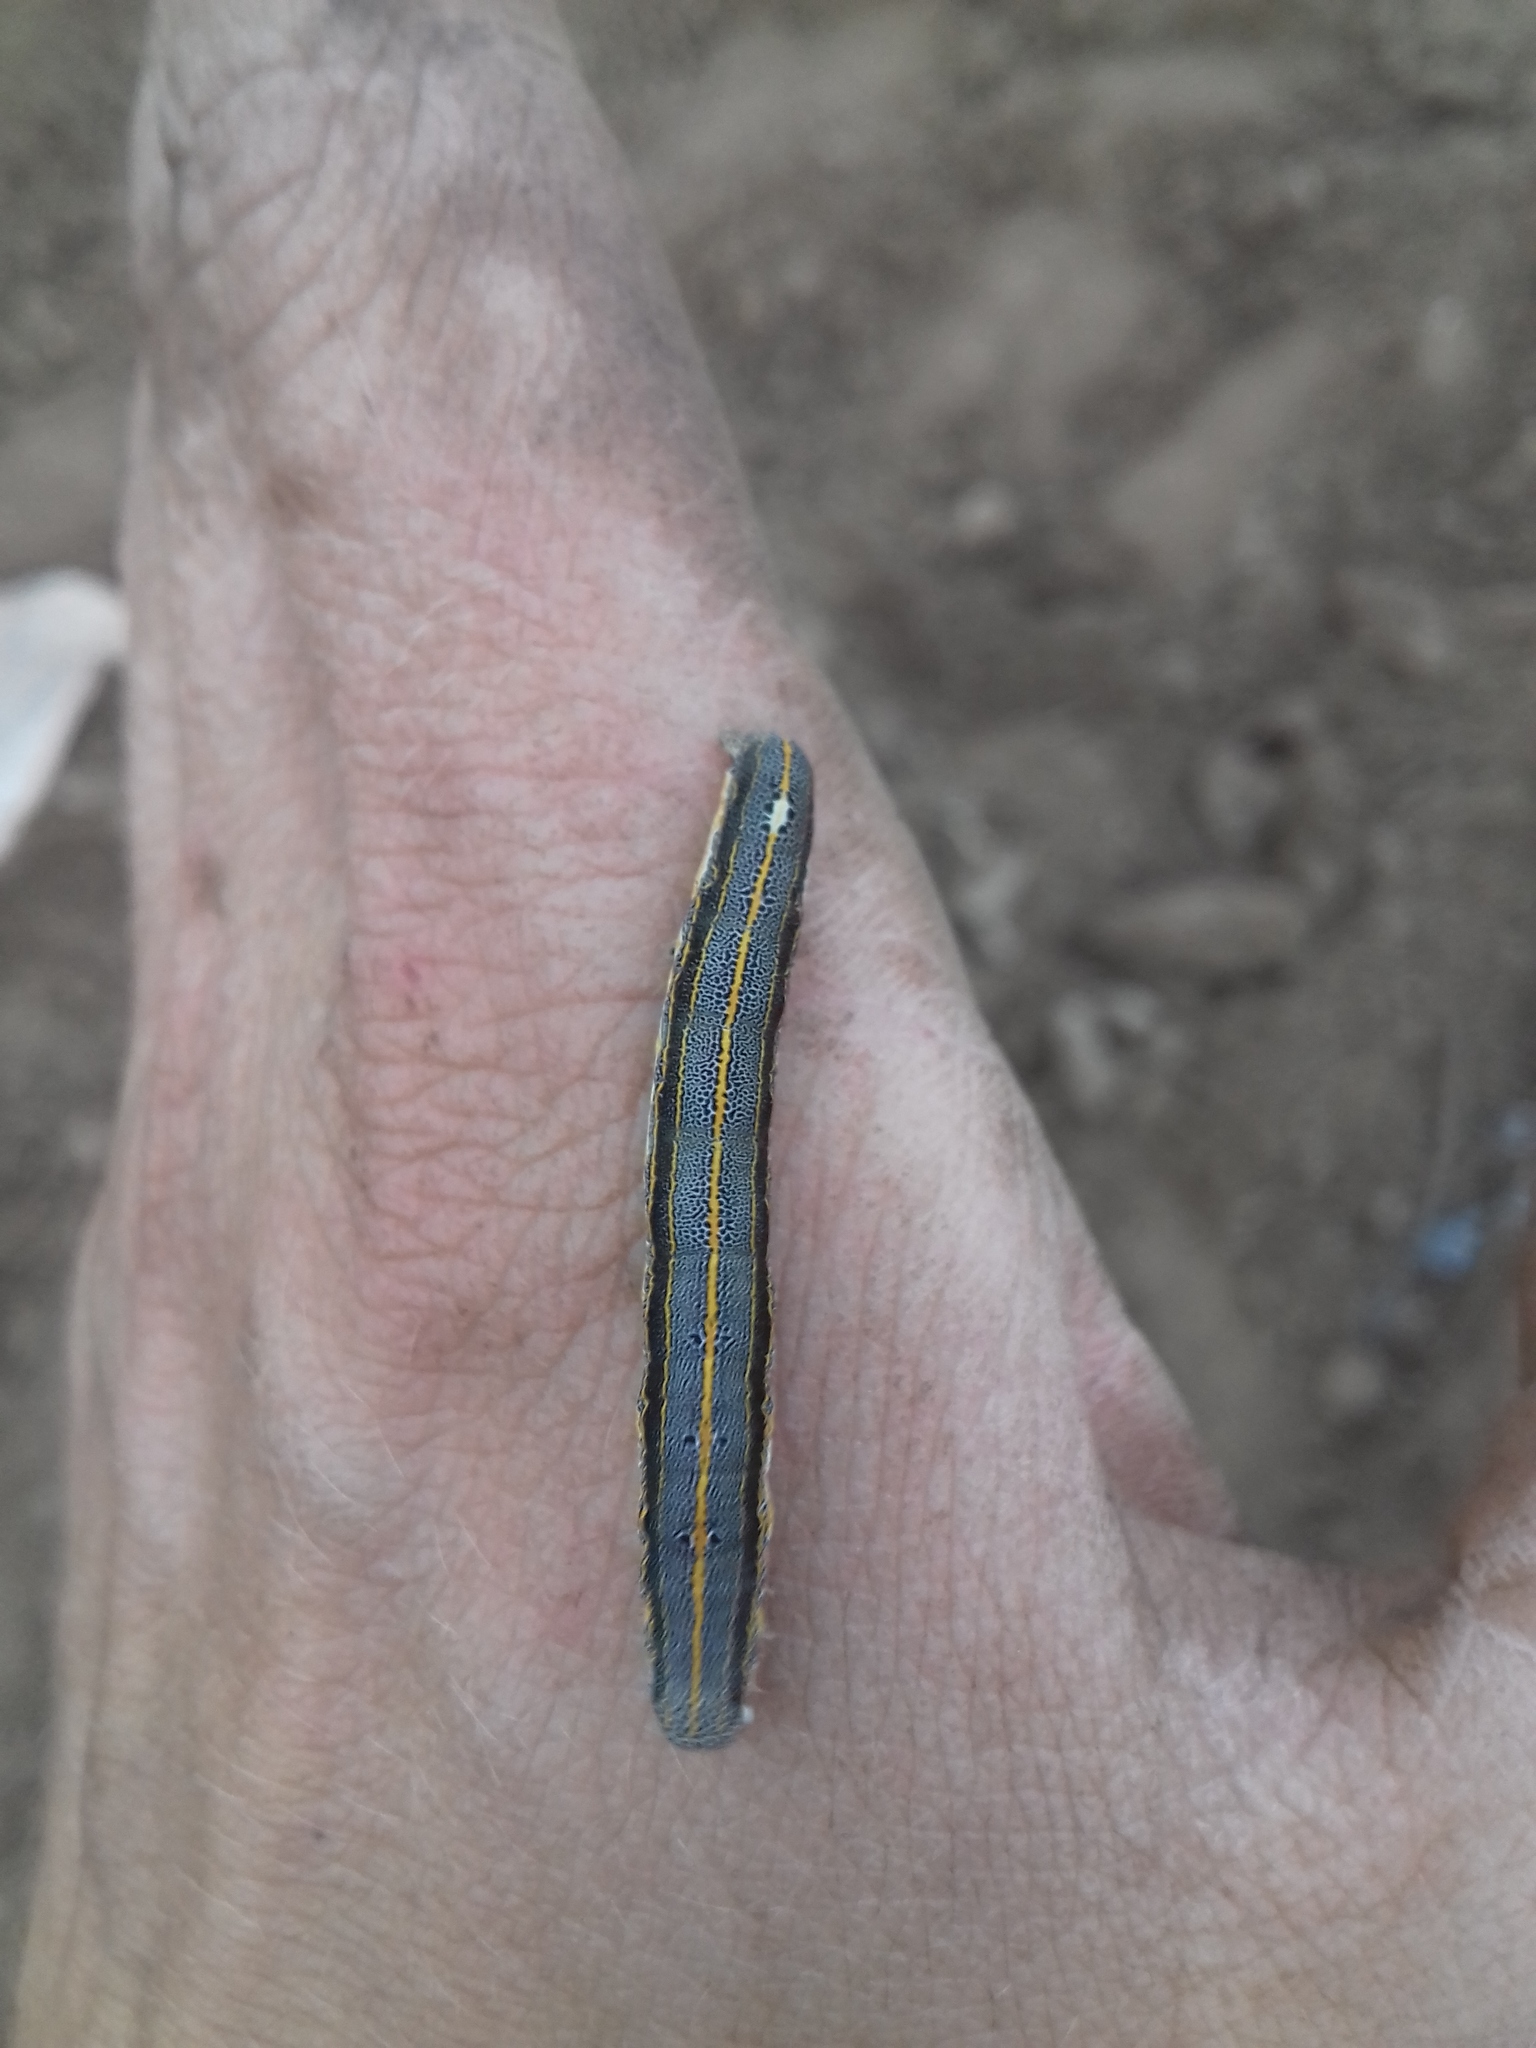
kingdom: Animalia
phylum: Arthropoda
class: Insecta
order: Lepidoptera
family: Noctuidae
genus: Aedia
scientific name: Aedia leucomelas
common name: Sorcerer
